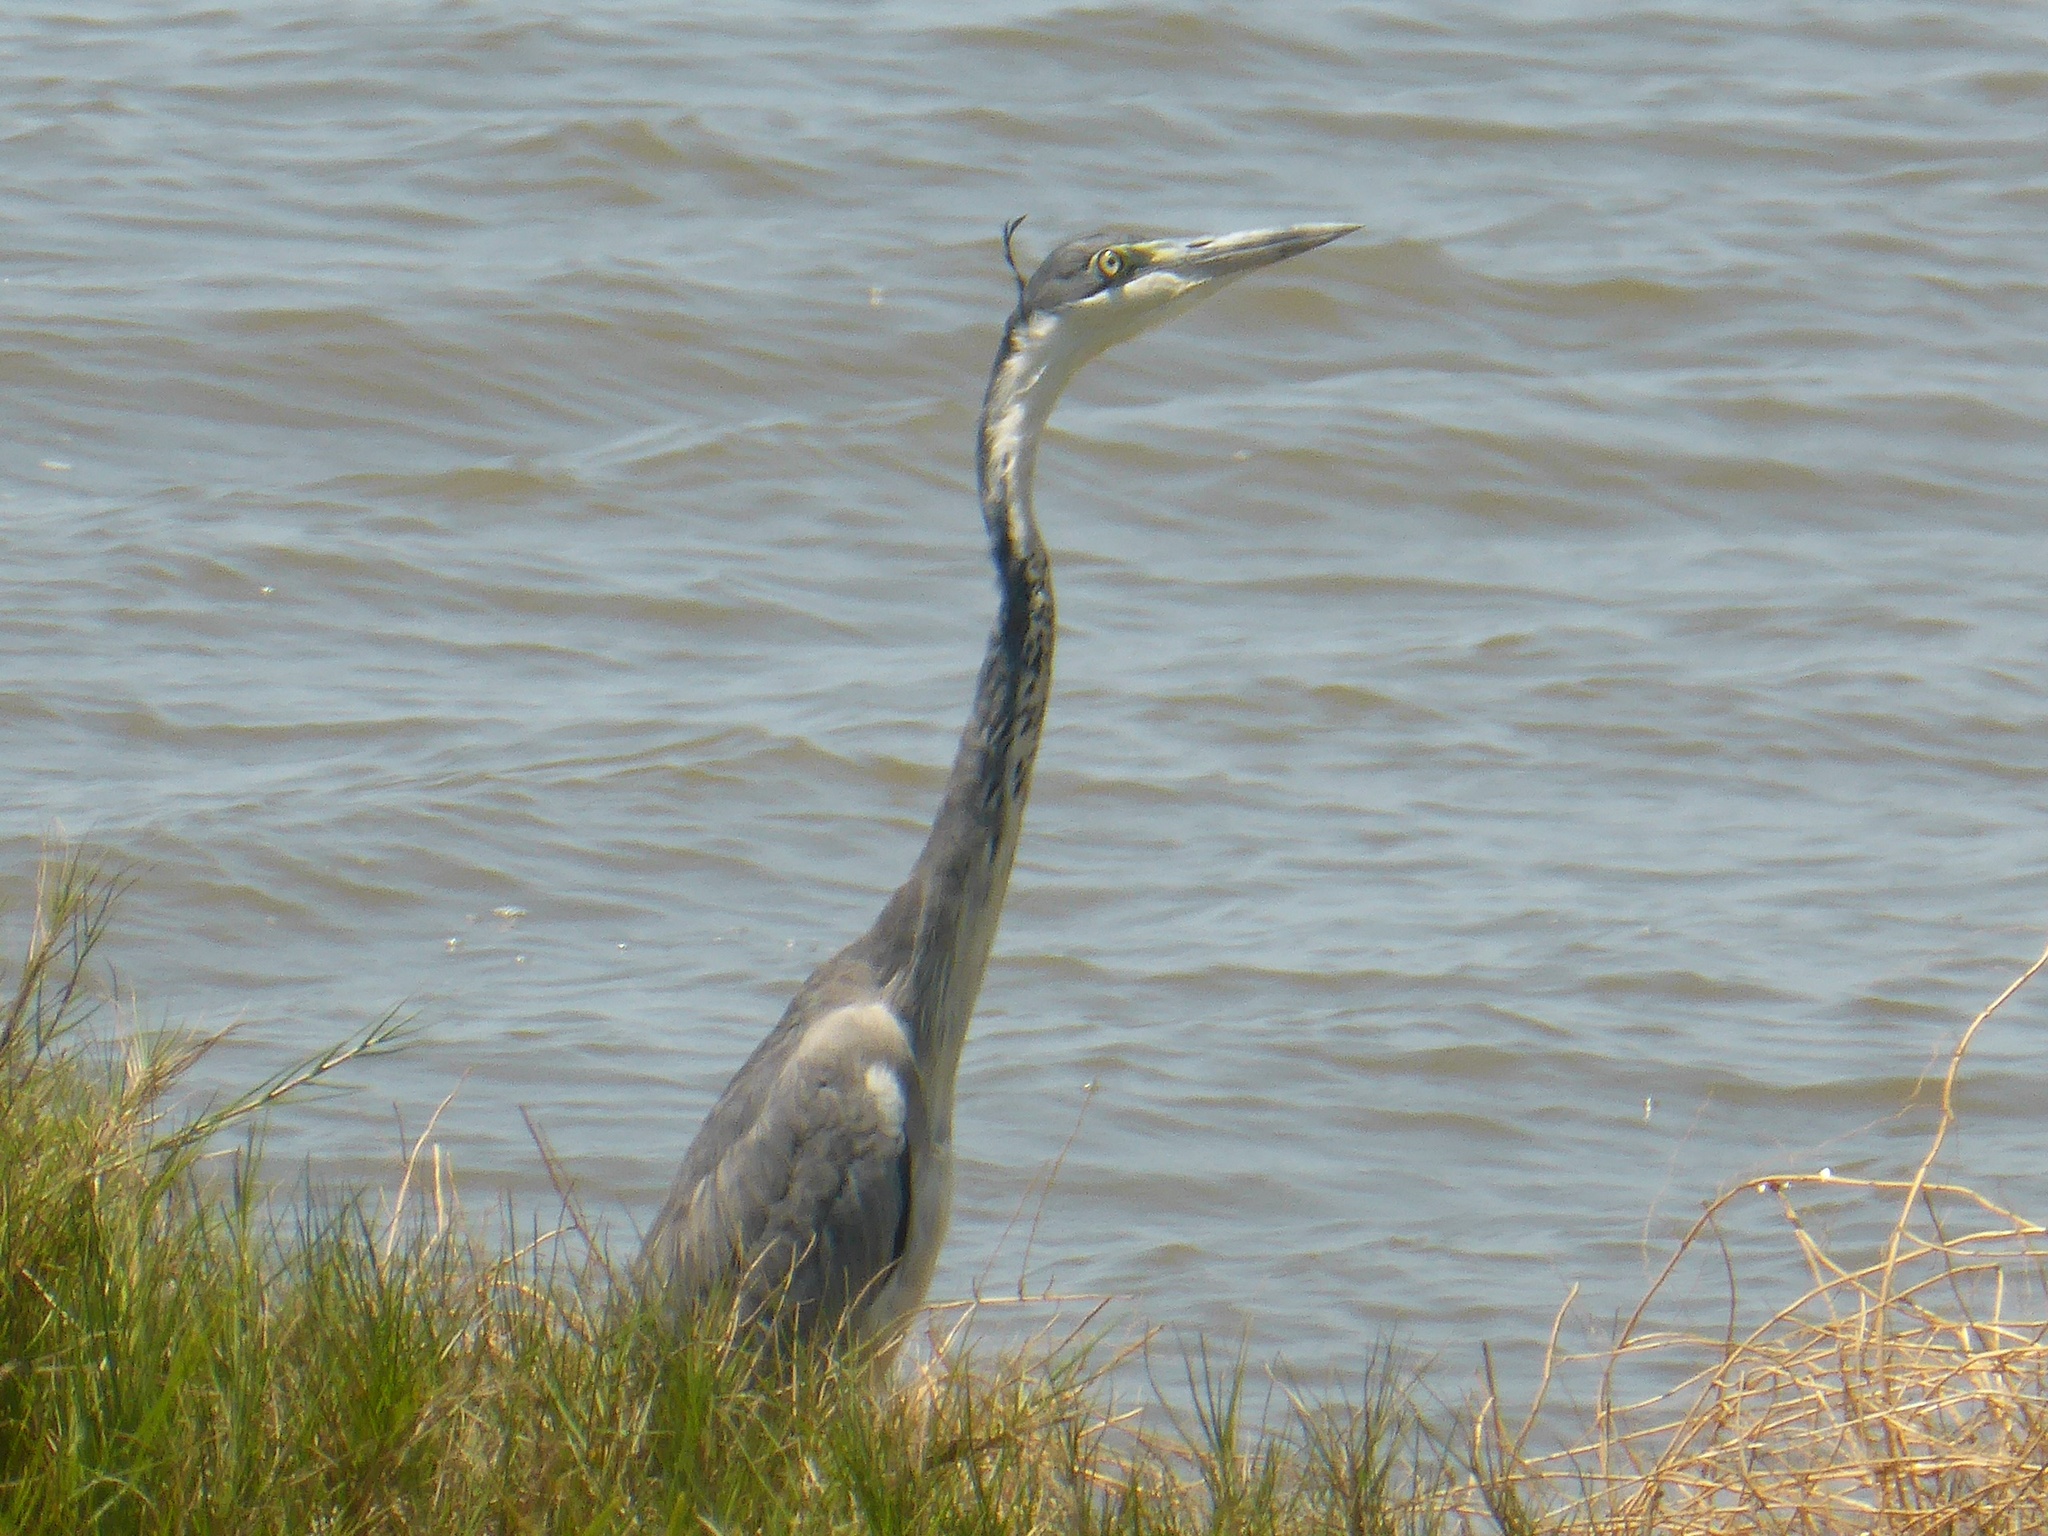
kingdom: Animalia
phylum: Chordata
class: Aves
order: Pelecaniformes
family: Ardeidae
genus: Ardea
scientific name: Ardea melanocephala
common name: Black-headed heron
